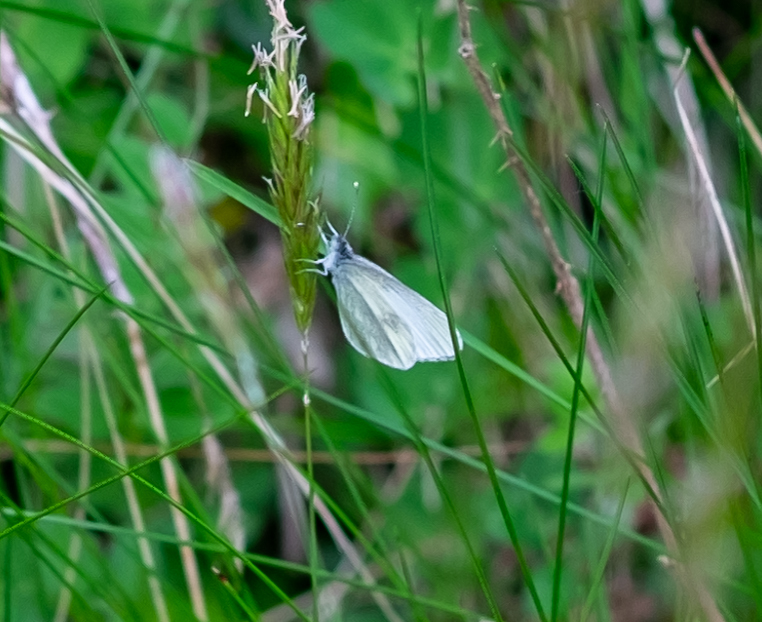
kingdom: Animalia
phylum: Arthropoda
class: Insecta
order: Lepidoptera
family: Pieridae
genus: Leptidea
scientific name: Leptidea
